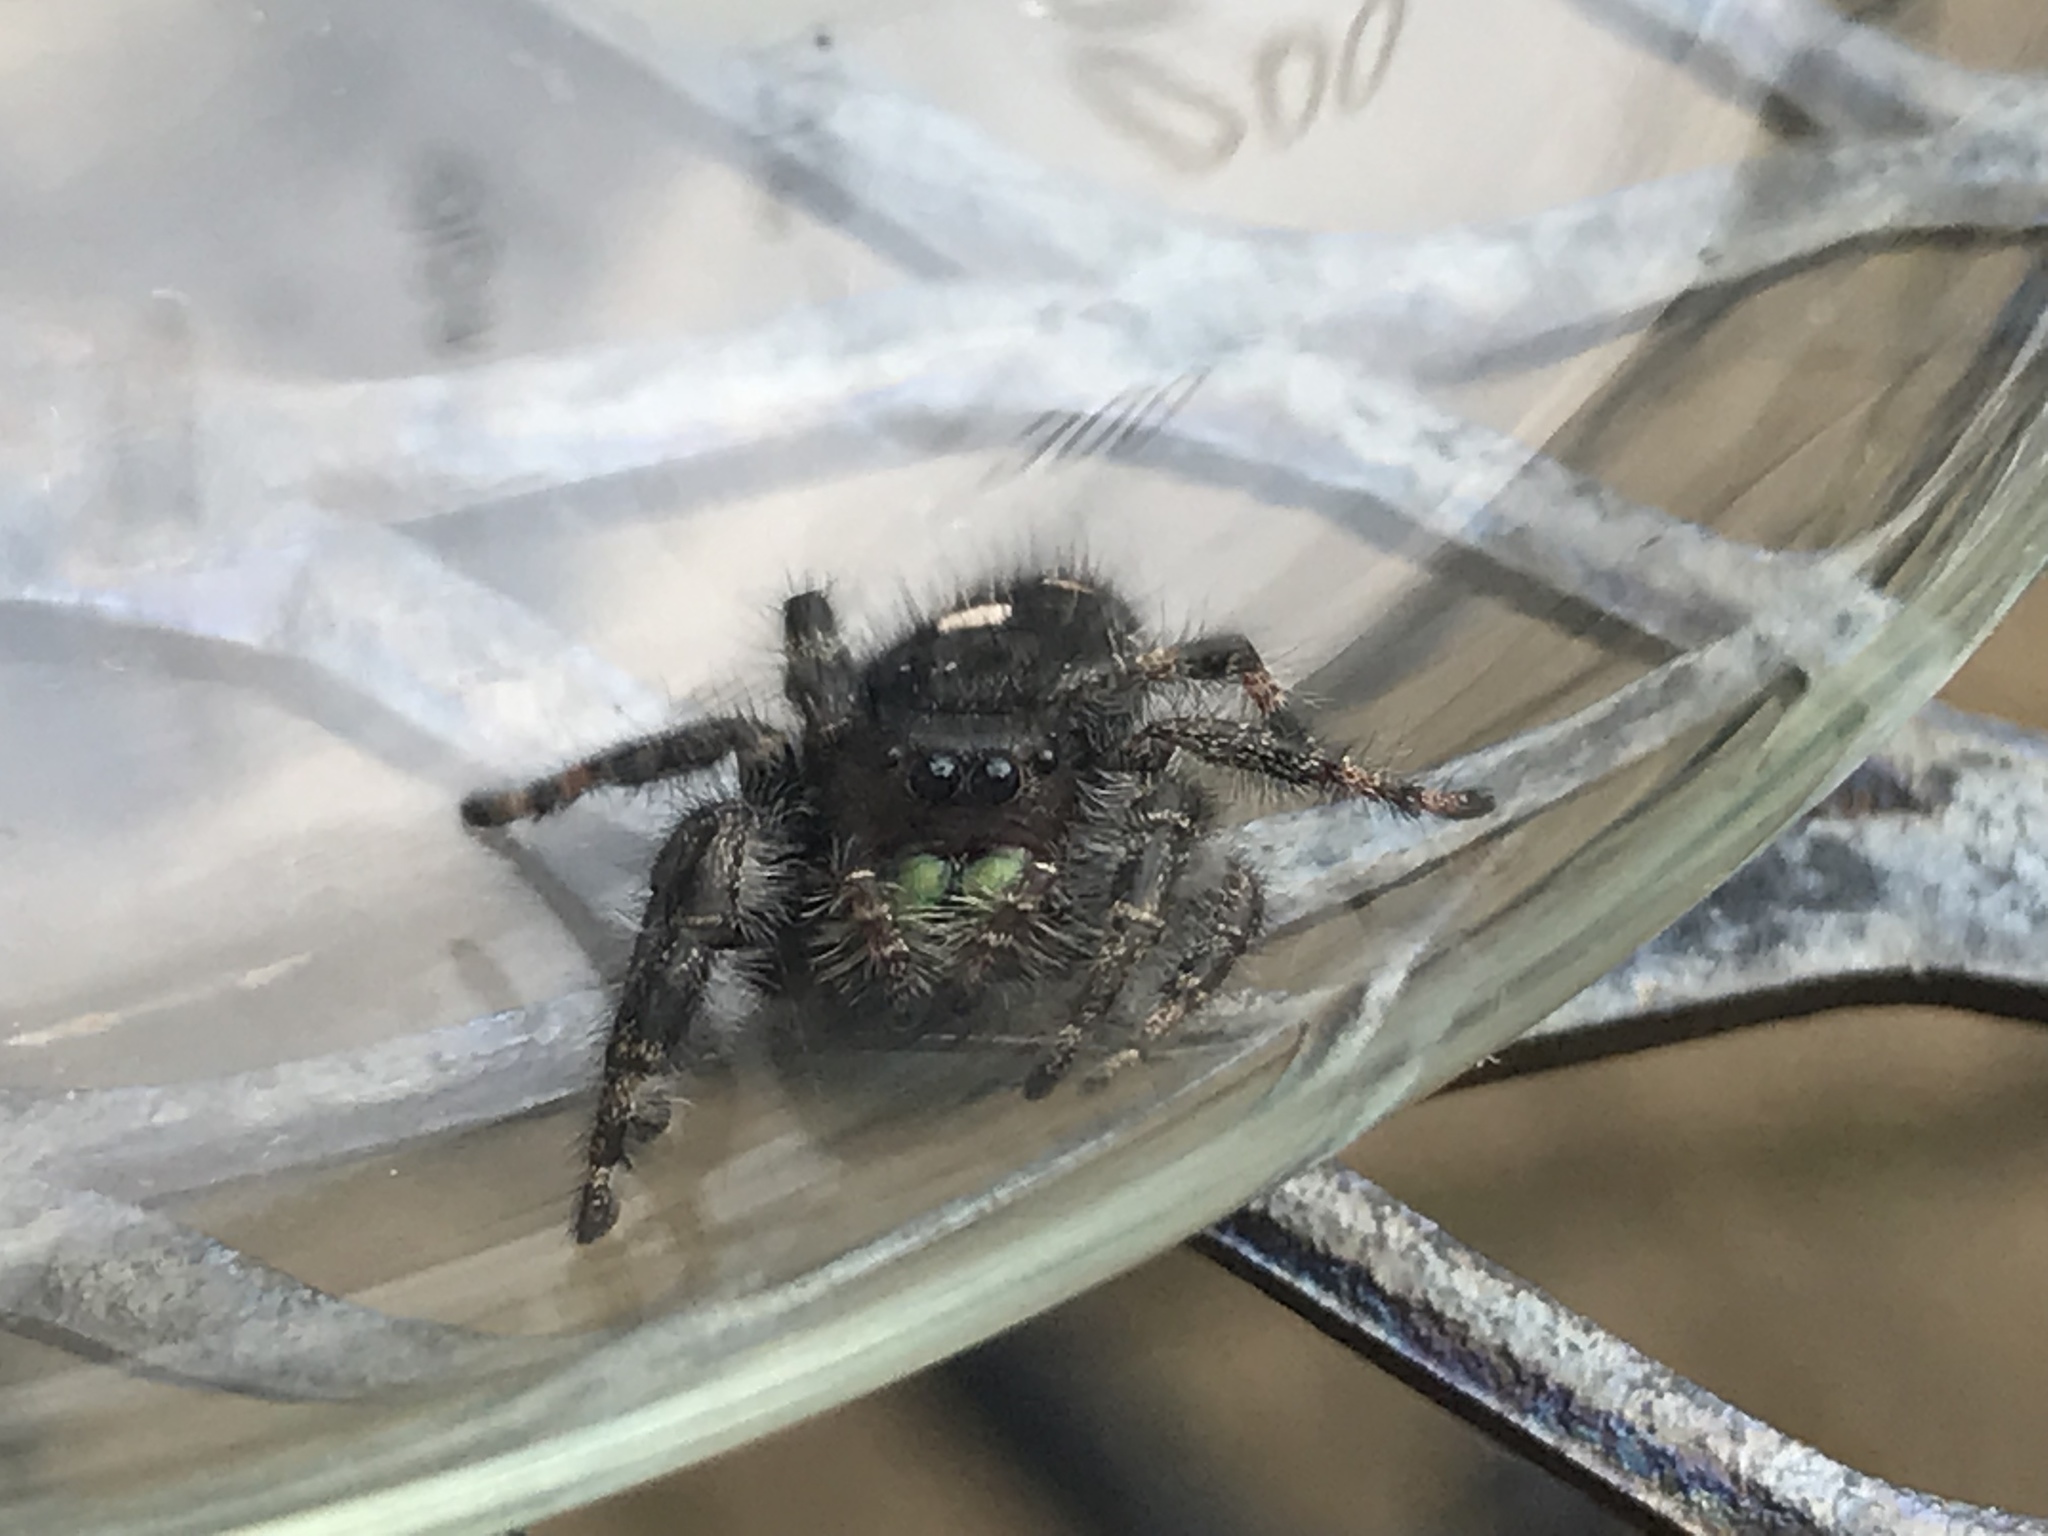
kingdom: Animalia
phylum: Arthropoda
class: Arachnida
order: Araneae
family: Salticidae
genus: Phidippus
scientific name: Phidippus audax
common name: Bold jumper
